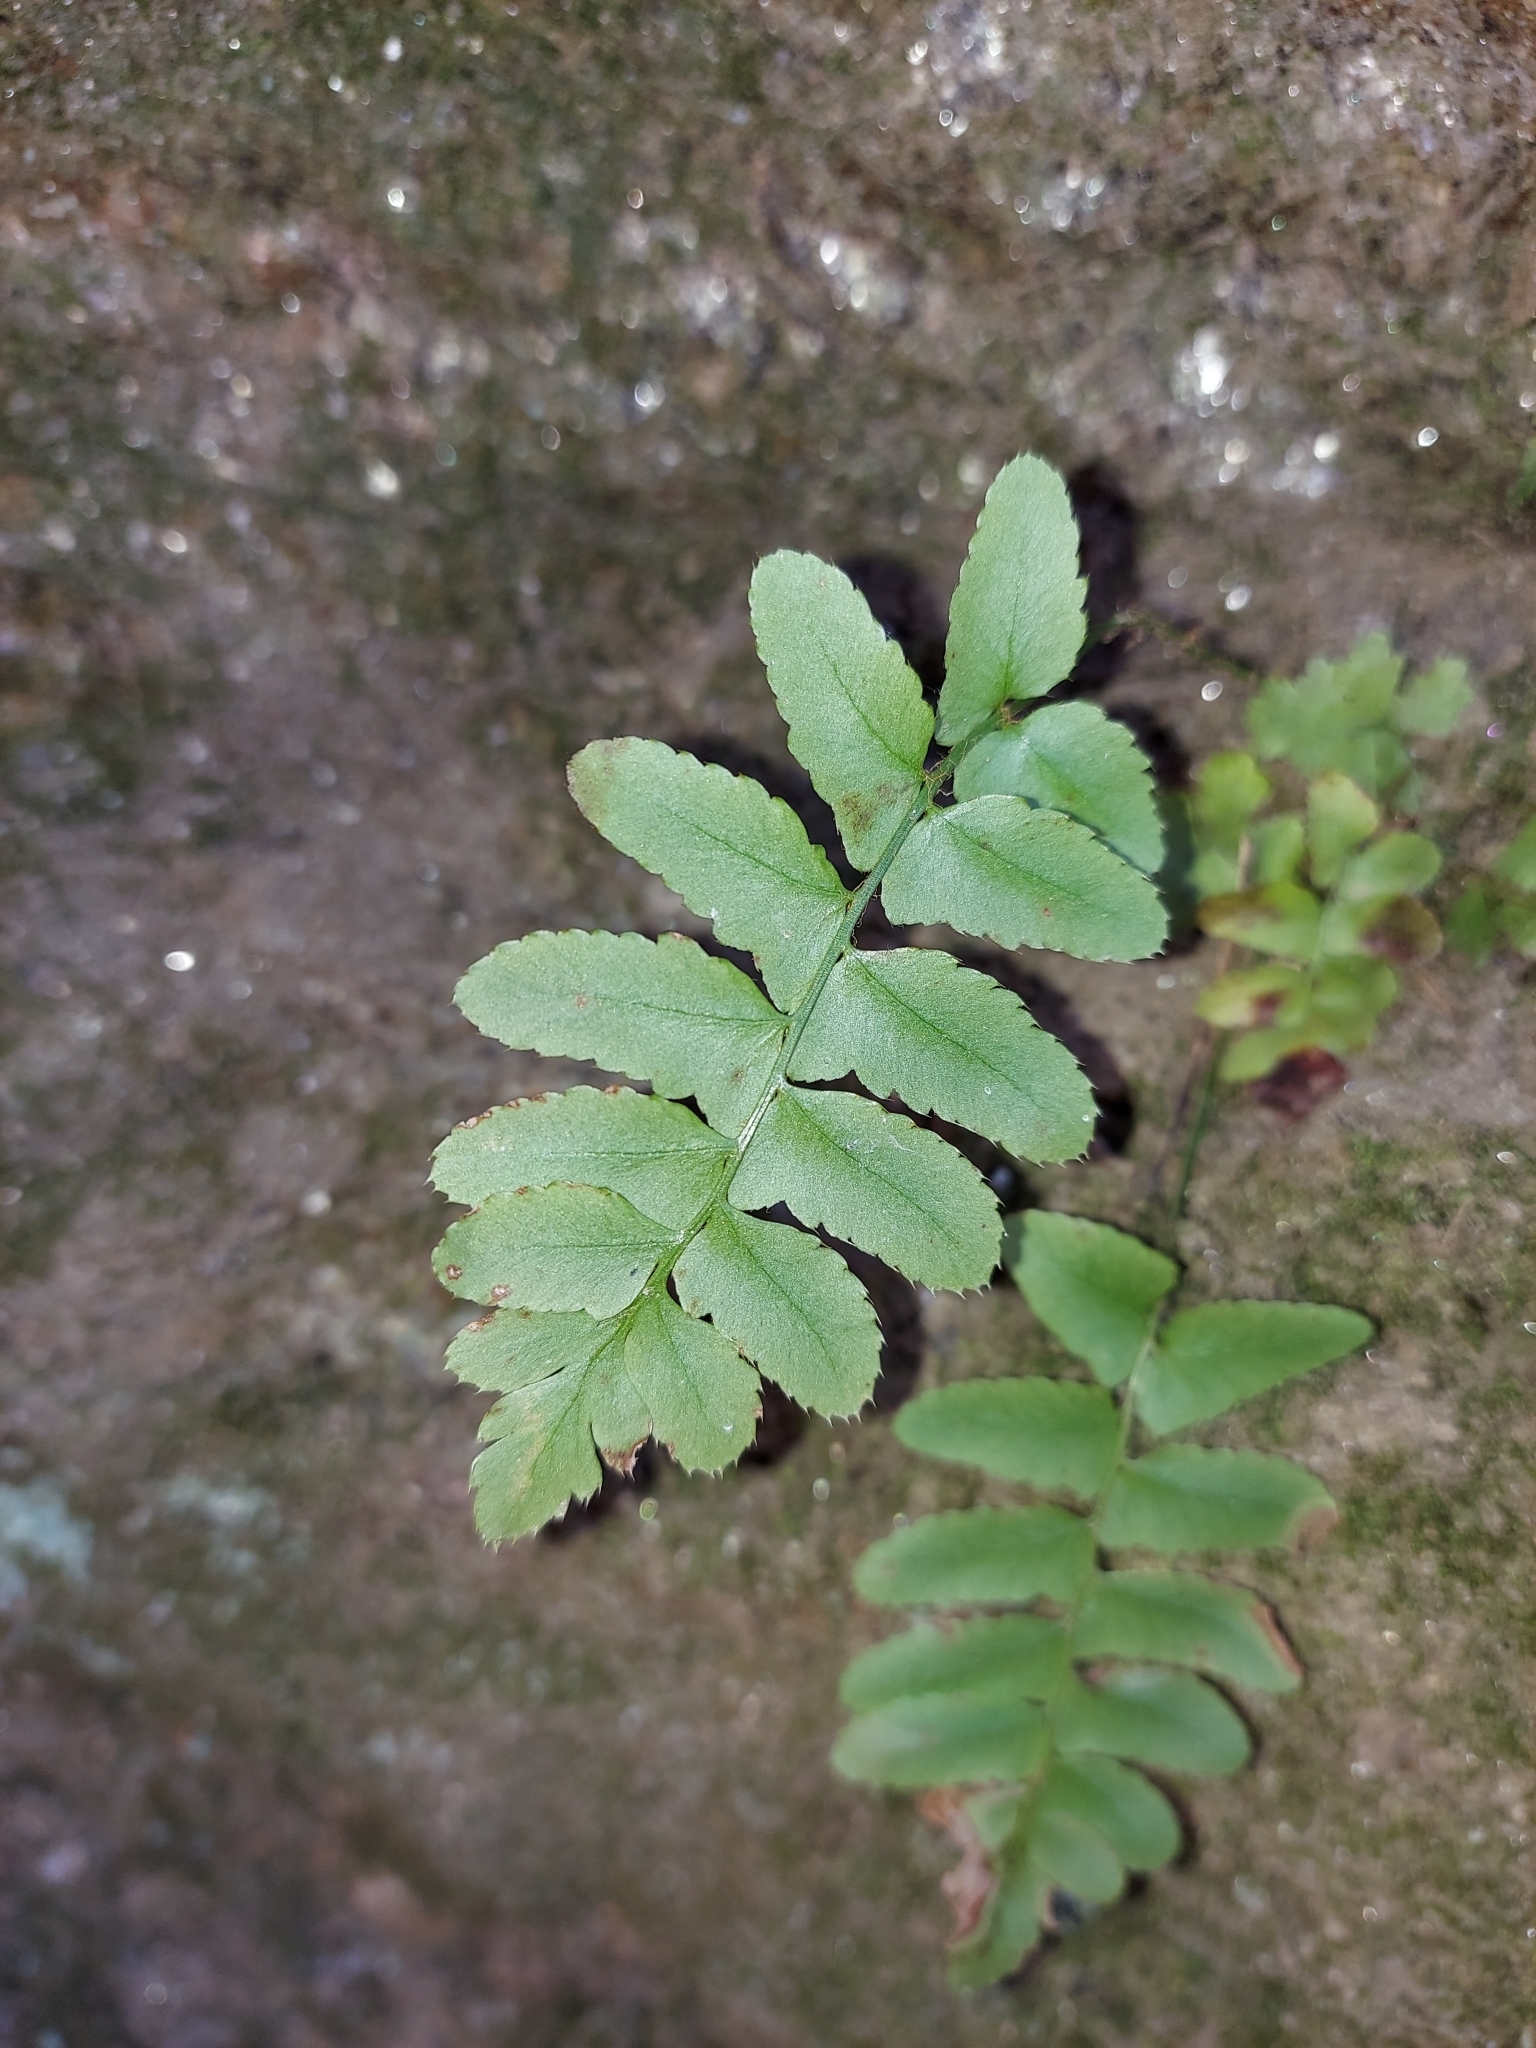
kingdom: Plantae
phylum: Tracheophyta
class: Polypodiopsida
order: Polypodiales
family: Dryopteridaceae
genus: Polystichum
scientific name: Polystichum acrostichoides
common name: Christmas fern
